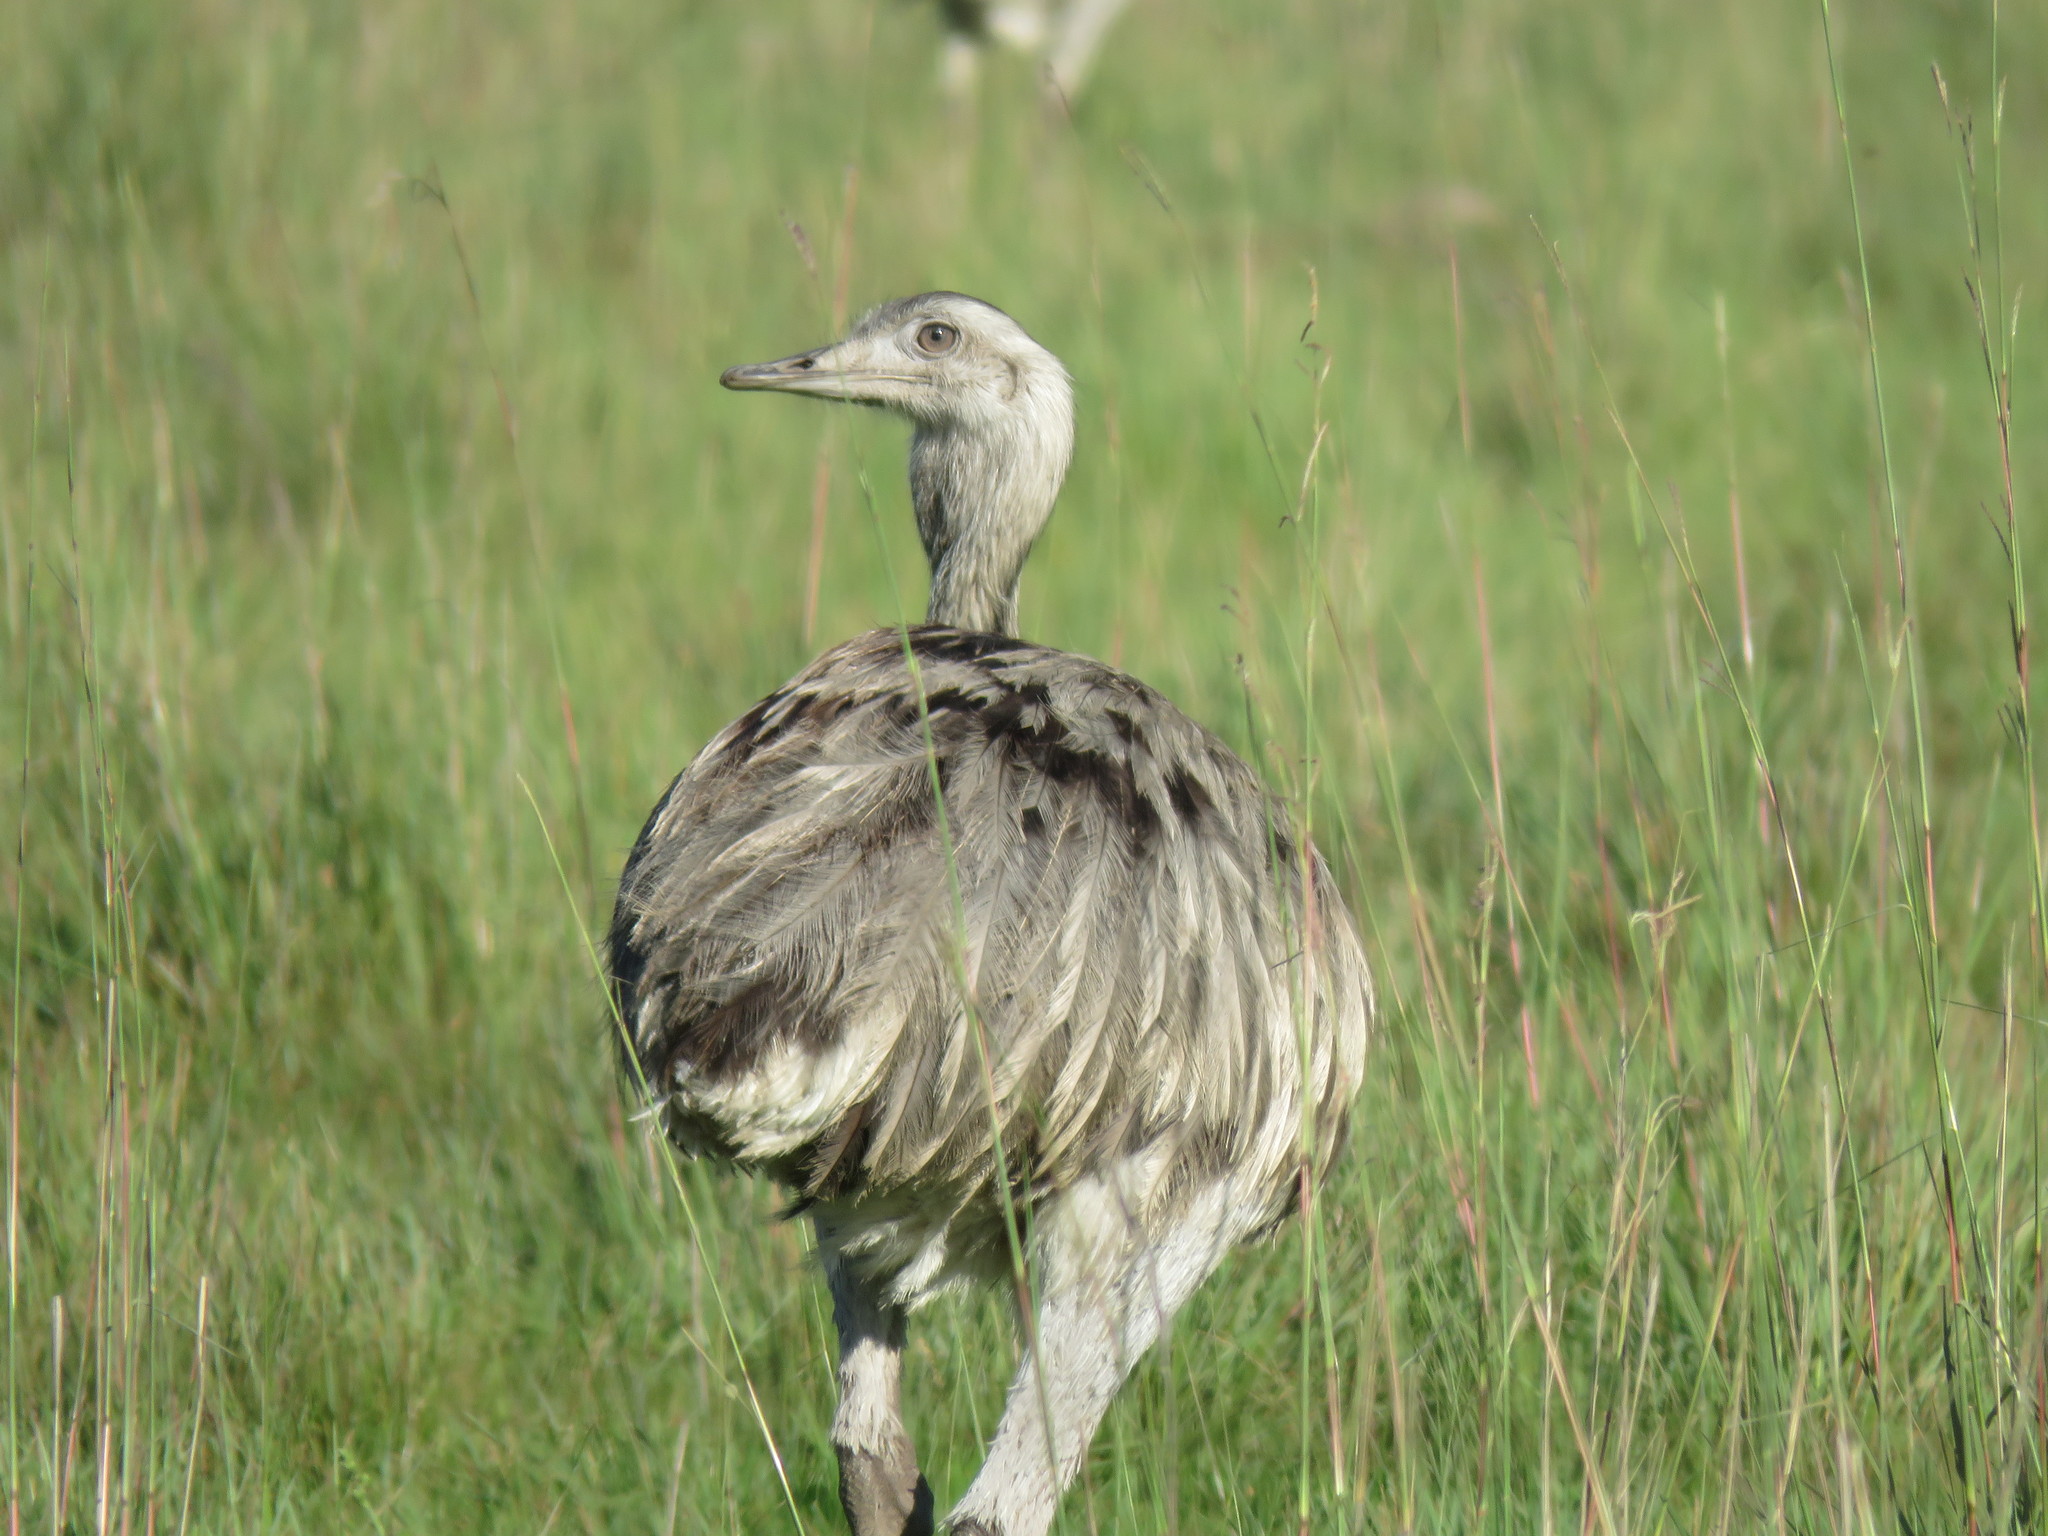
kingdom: Animalia
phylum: Chordata
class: Aves
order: Rheiformes
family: Rheidae
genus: Rhea
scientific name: Rhea americana
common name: Greater rhea
